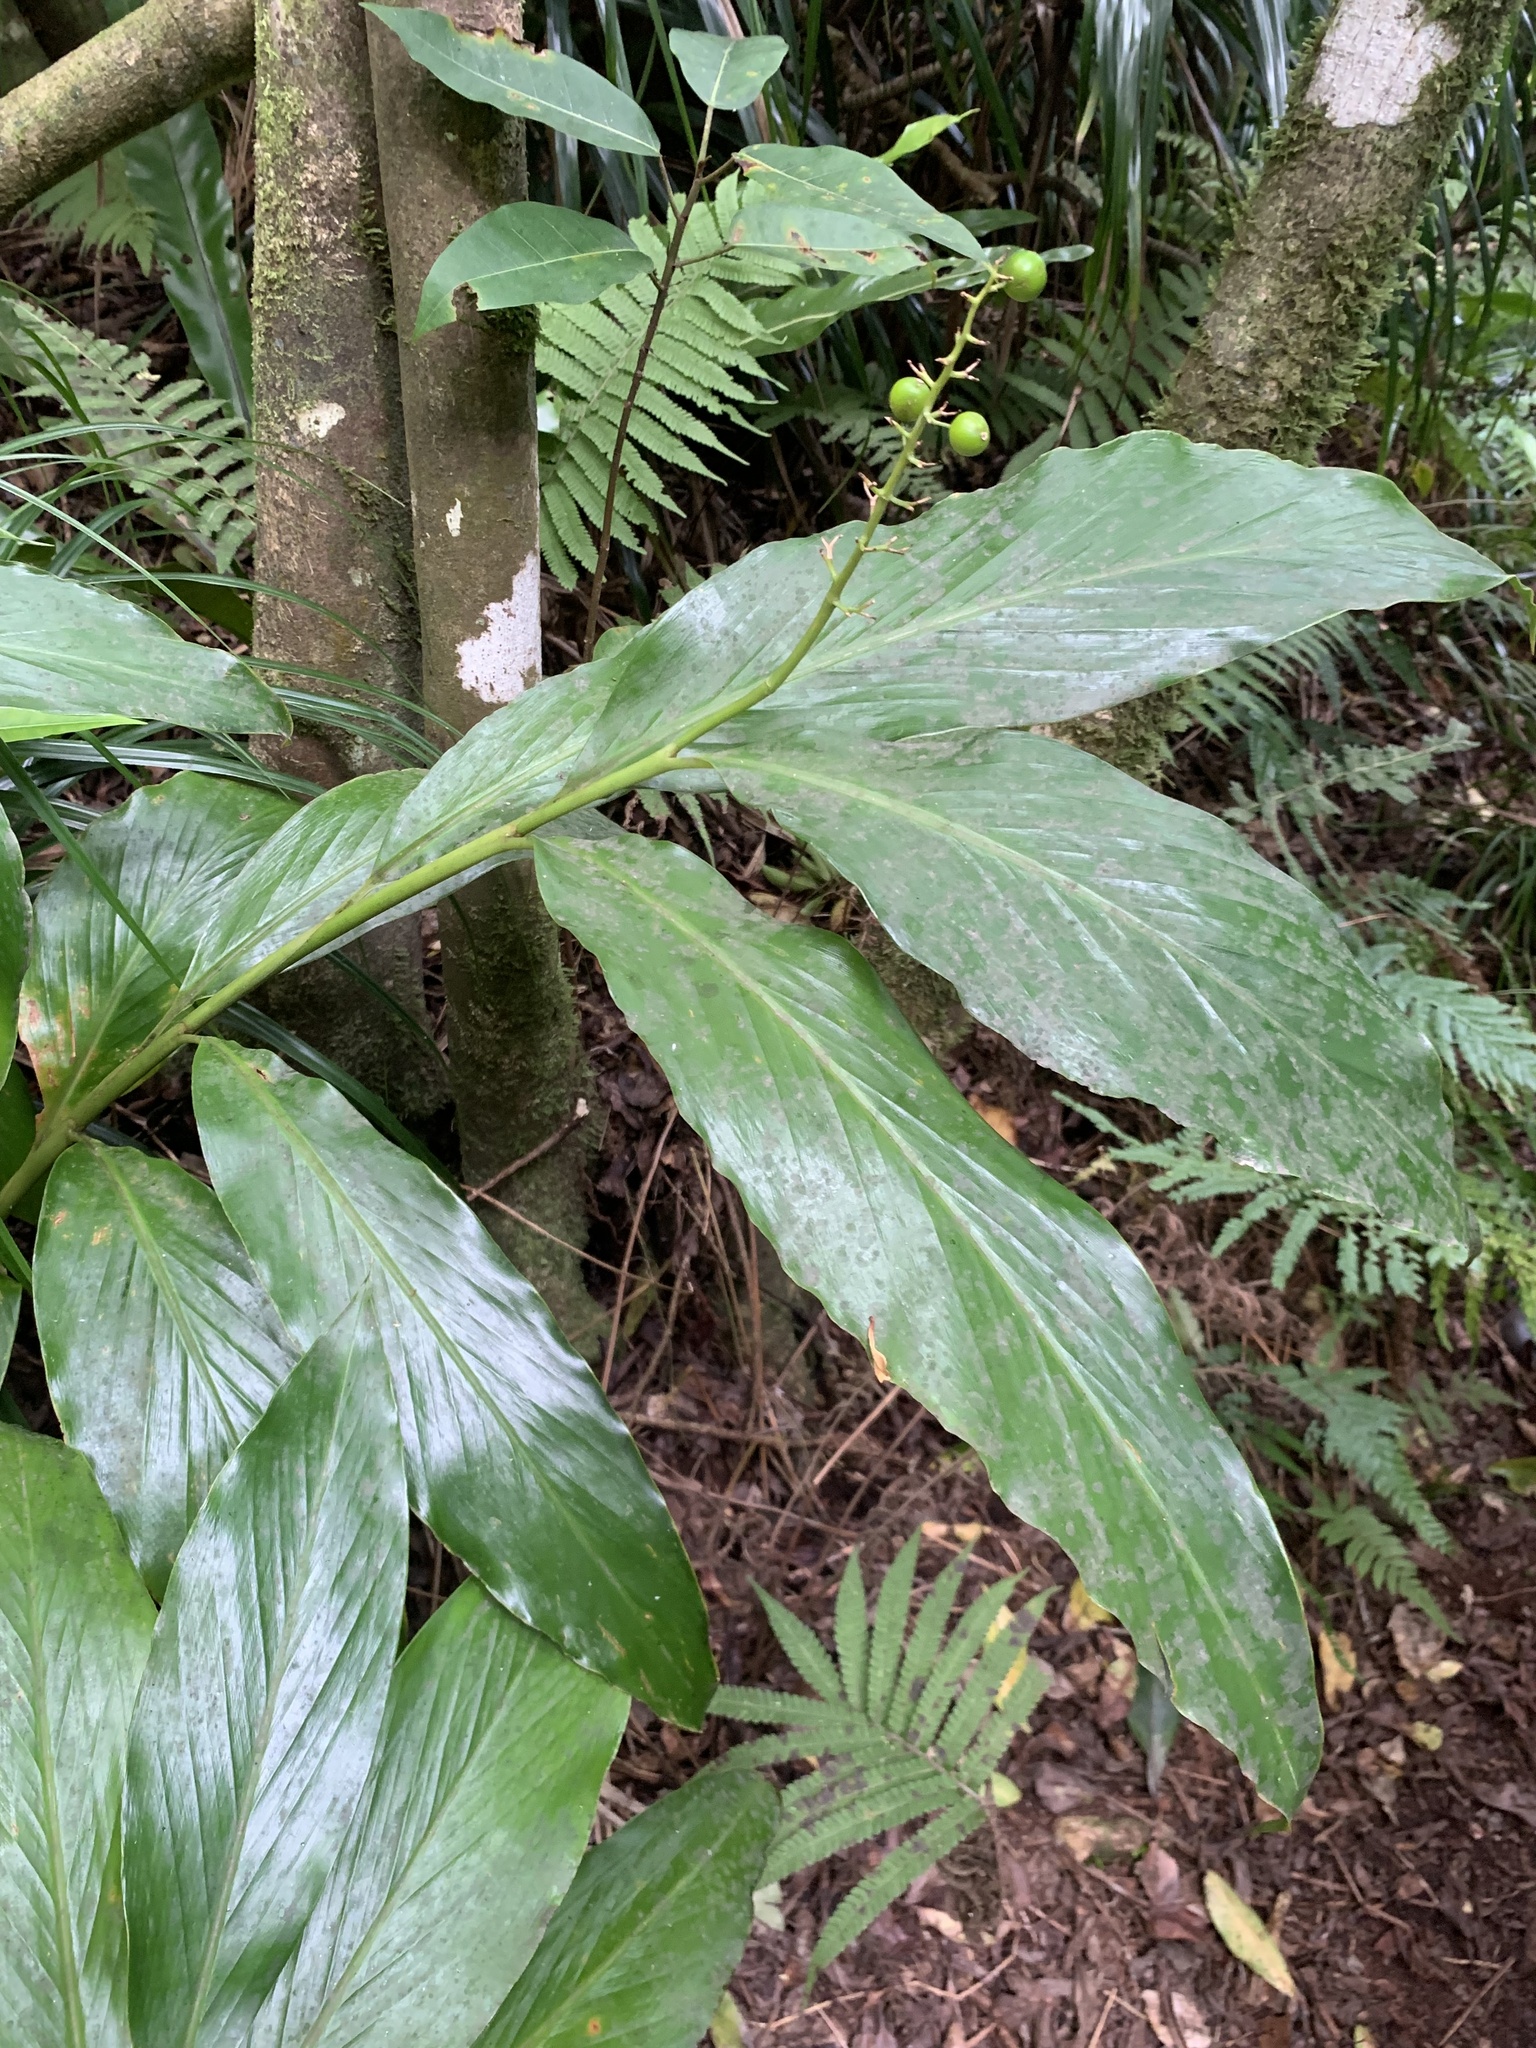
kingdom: Plantae
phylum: Tracheophyta
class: Liliopsida
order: Zingiberales
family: Zingiberaceae
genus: Alpinia
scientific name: Alpinia boninsimensis
